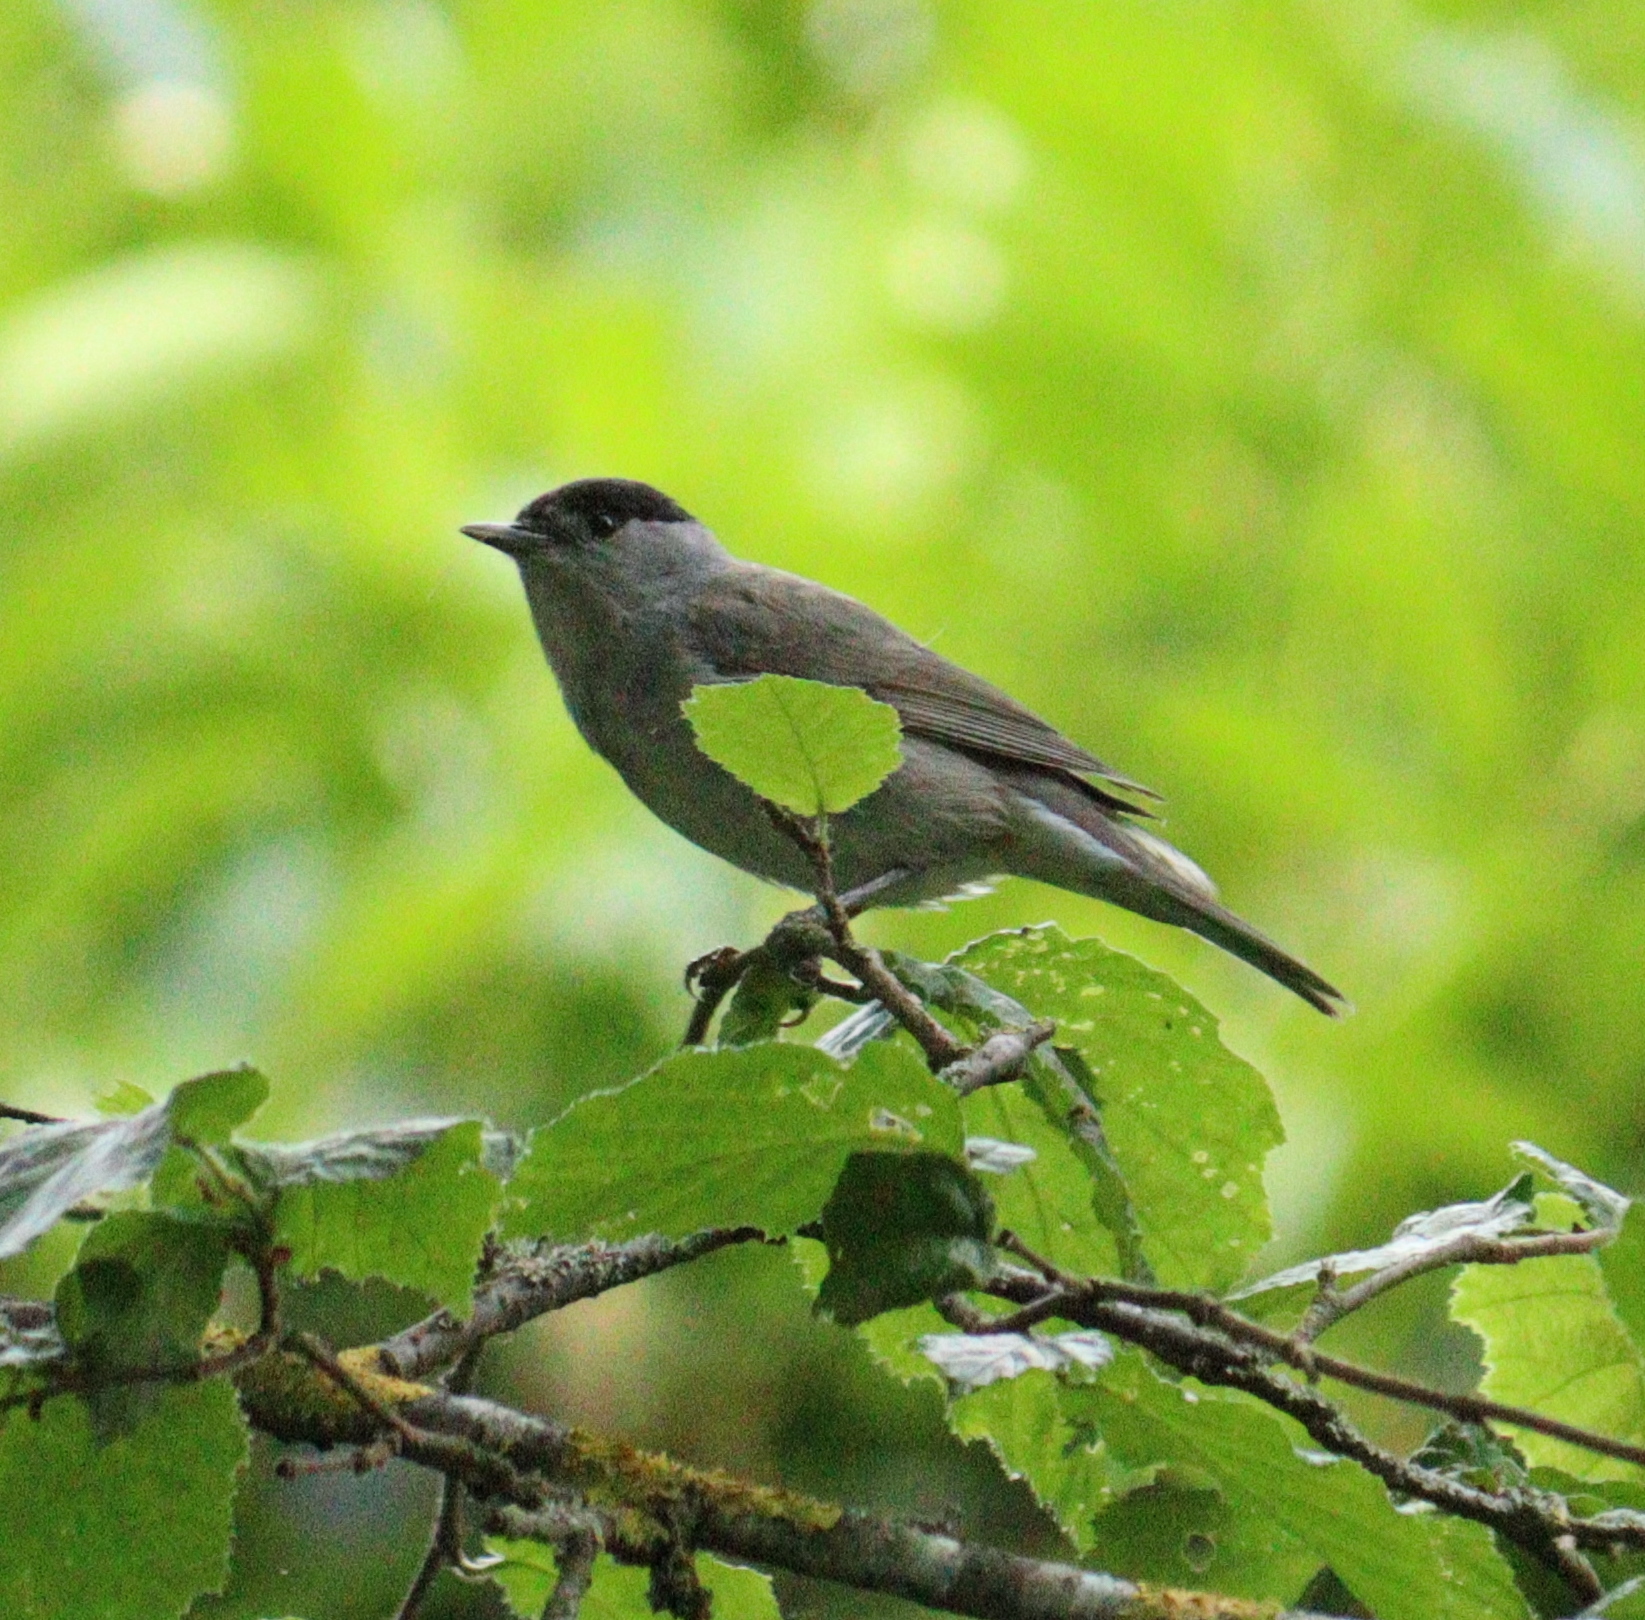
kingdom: Animalia
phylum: Chordata
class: Aves
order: Passeriformes
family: Sylviidae
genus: Sylvia
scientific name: Sylvia atricapilla
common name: Eurasian blackcap
